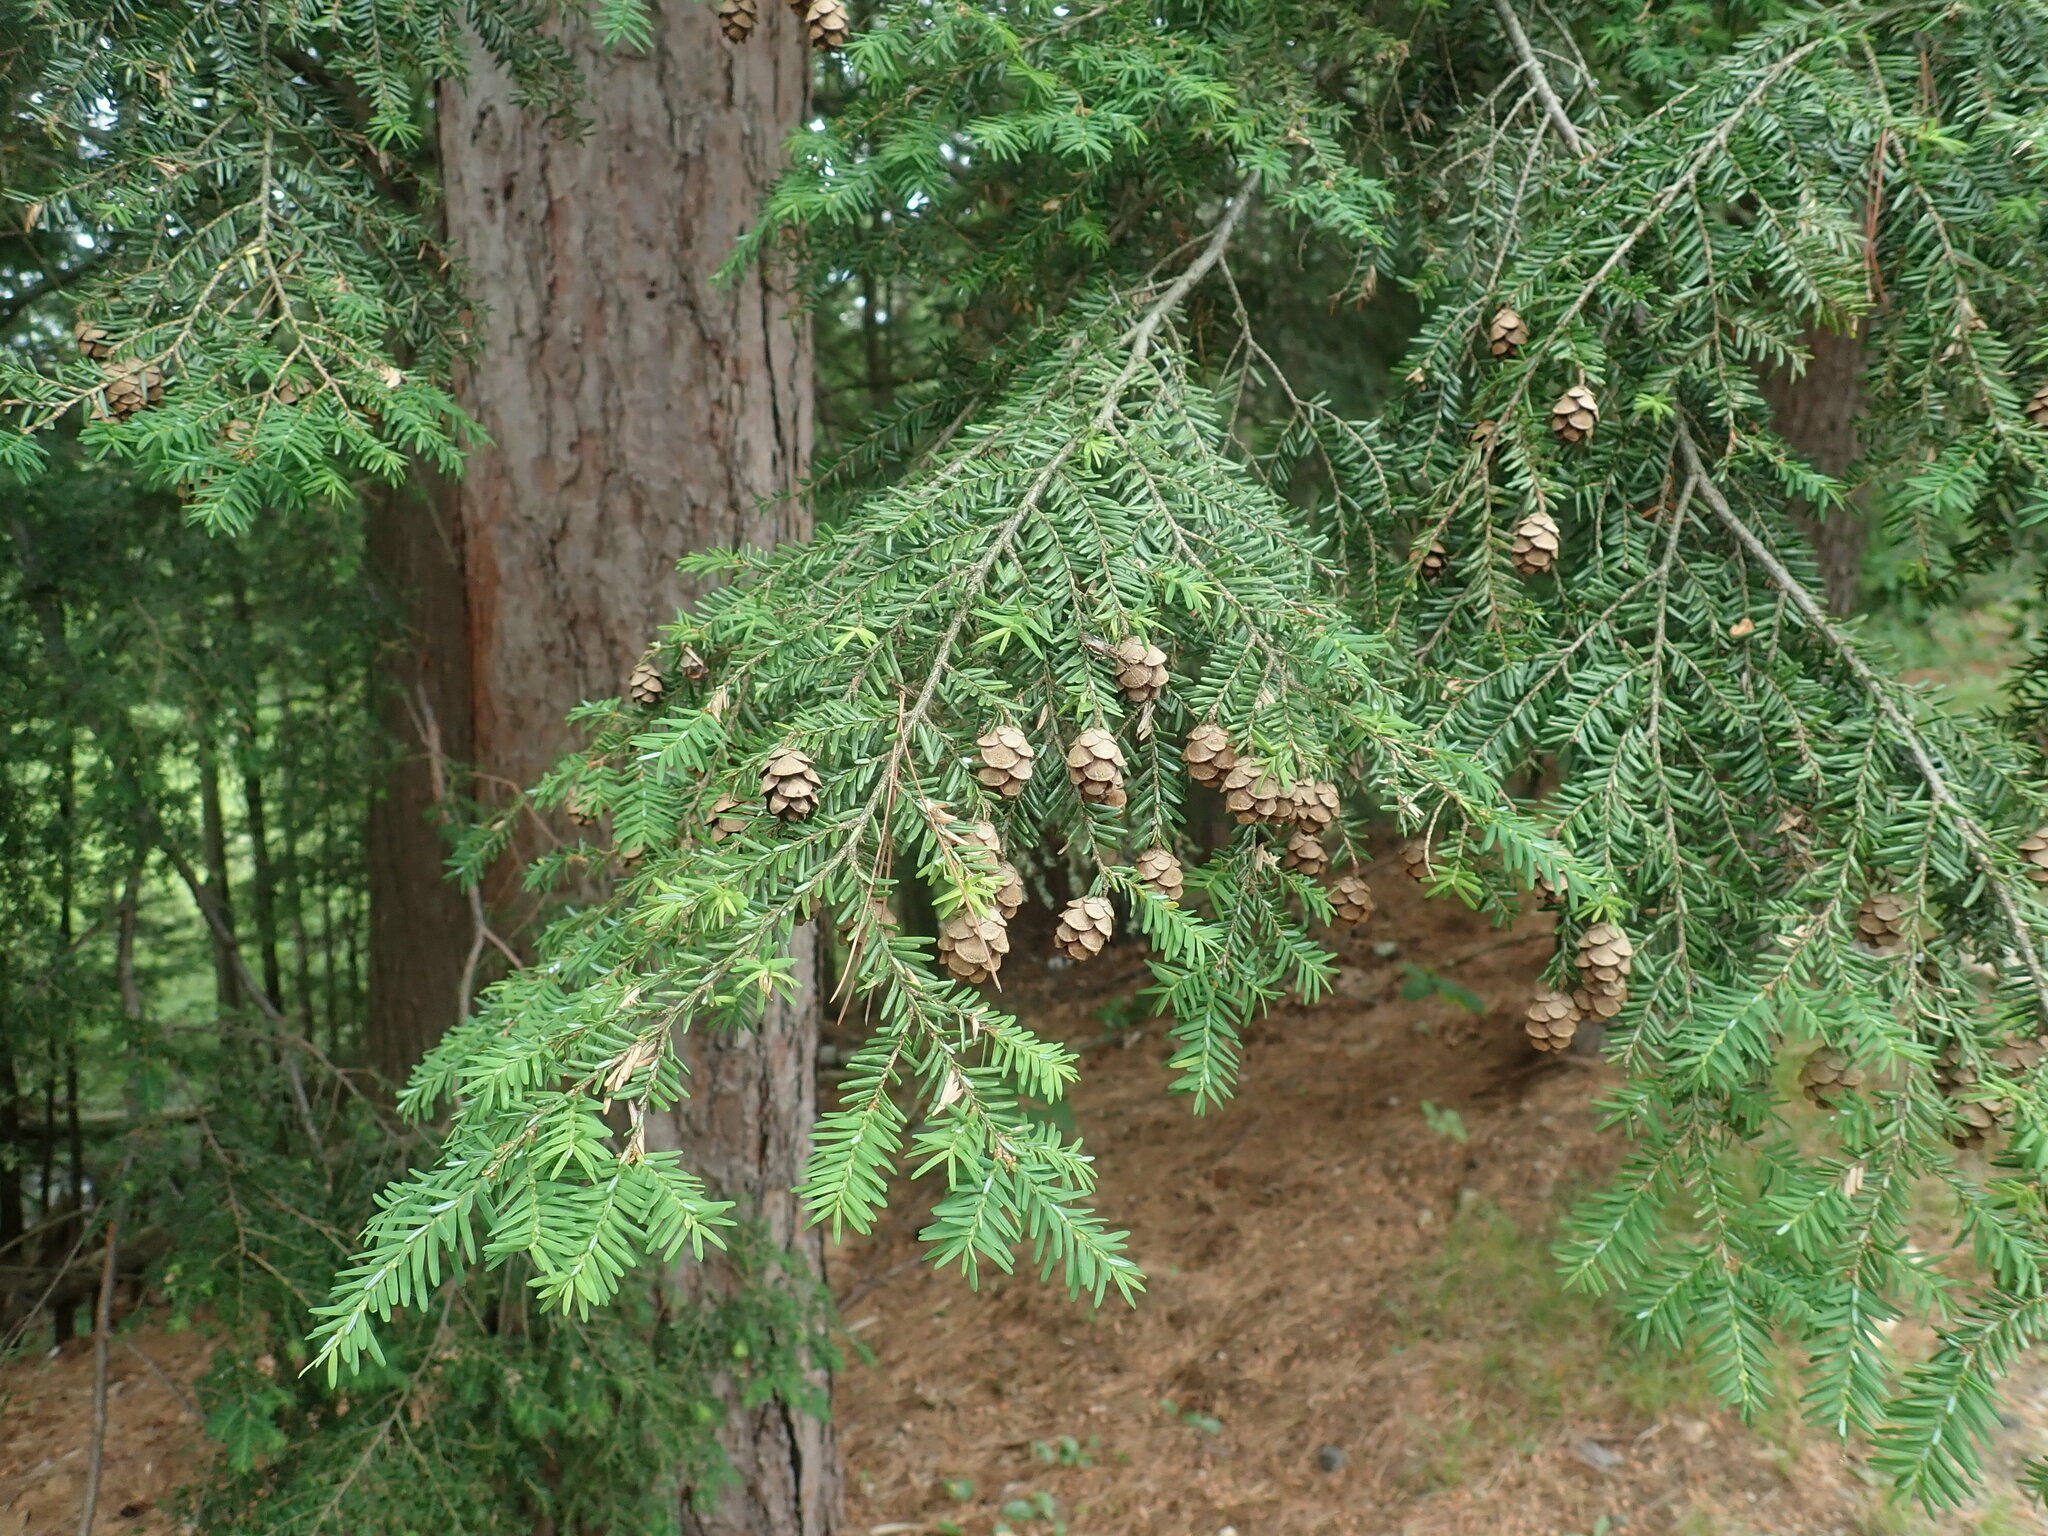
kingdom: Plantae
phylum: Tracheophyta
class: Pinopsida
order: Pinales
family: Pinaceae
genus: Tsuga
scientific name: Tsuga canadensis
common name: Eastern hemlock
